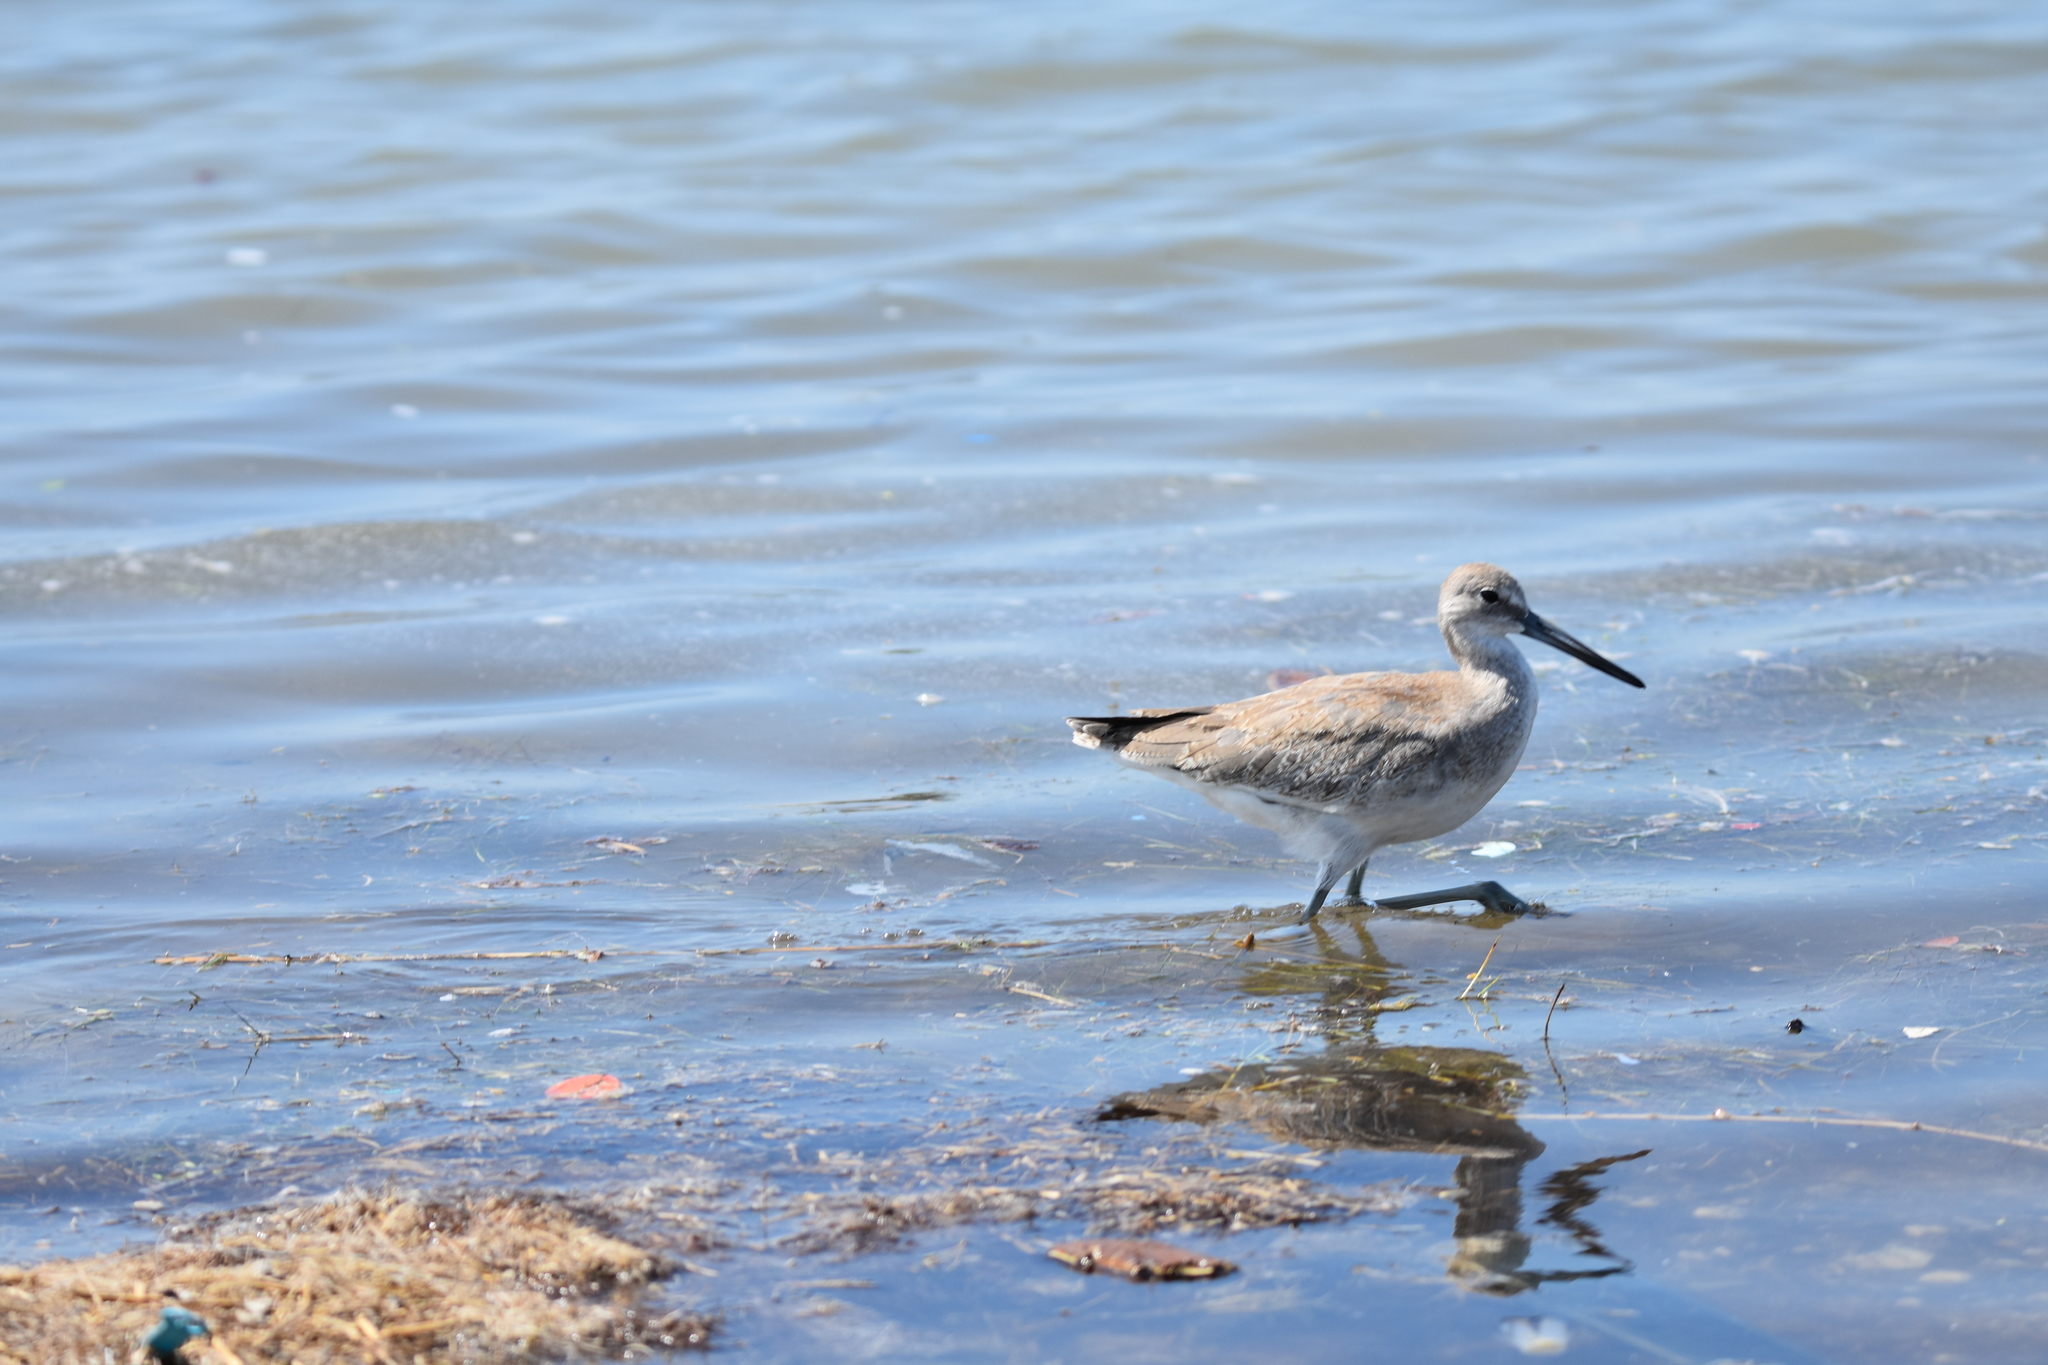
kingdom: Animalia
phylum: Chordata
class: Aves
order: Charadriiformes
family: Scolopacidae
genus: Tringa
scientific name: Tringa semipalmata
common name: Willet
